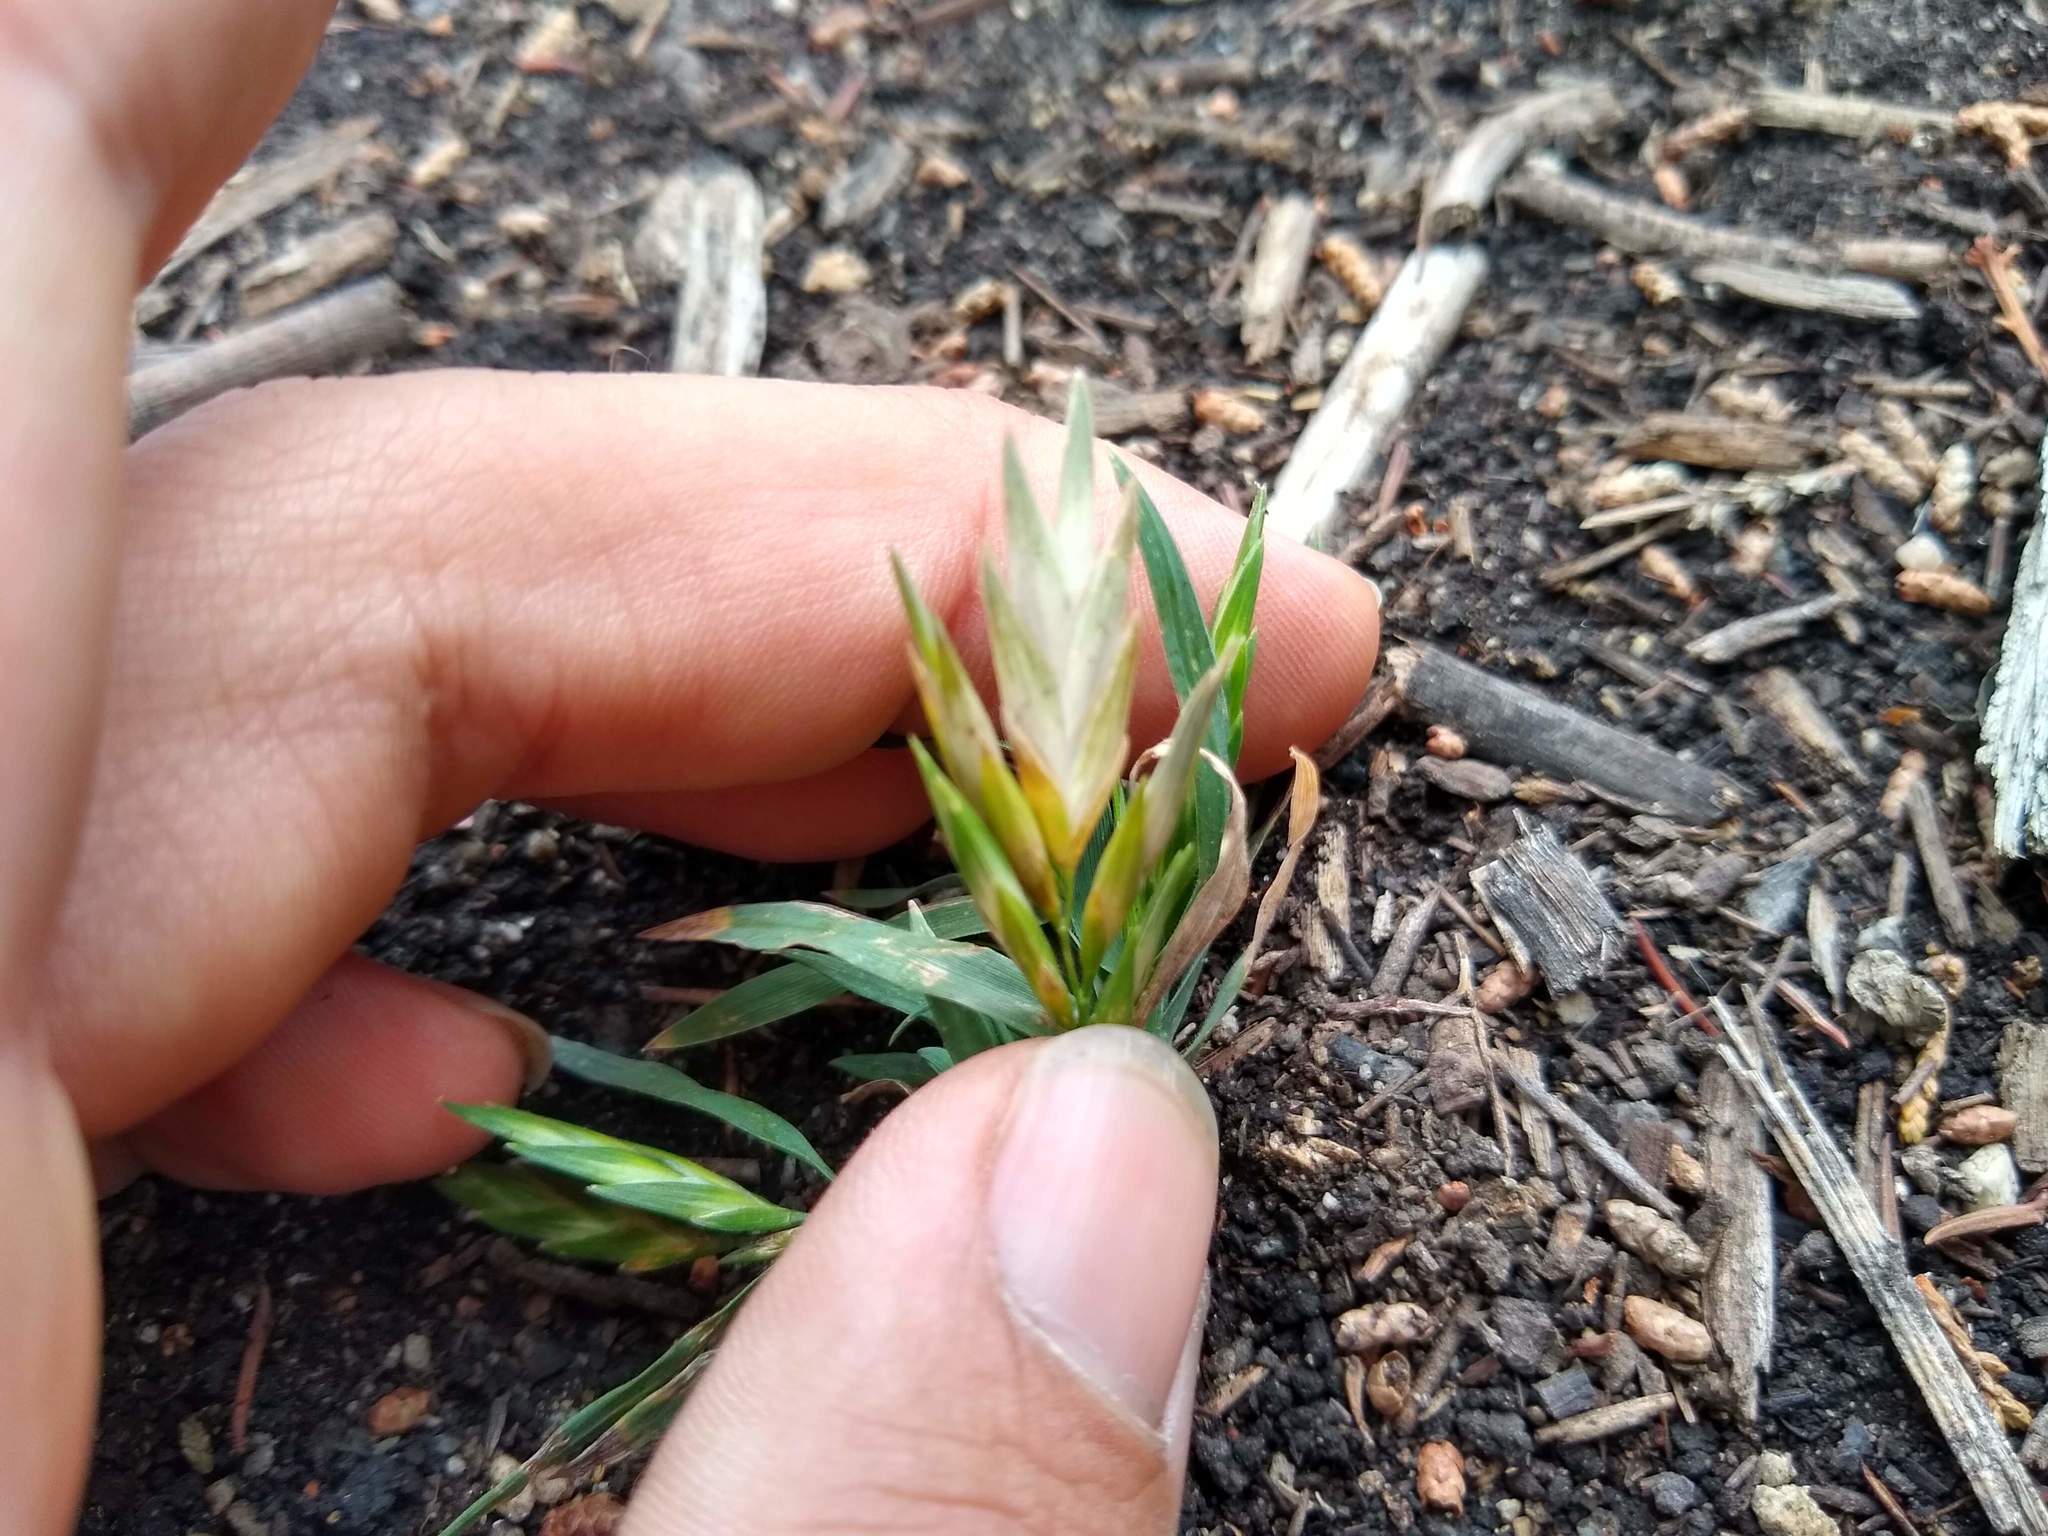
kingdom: Plantae
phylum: Tracheophyta
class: Liliopsida
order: Poales
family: Poaceae
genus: Bromus
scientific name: Bromus catharticus
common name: Rescuegrass
